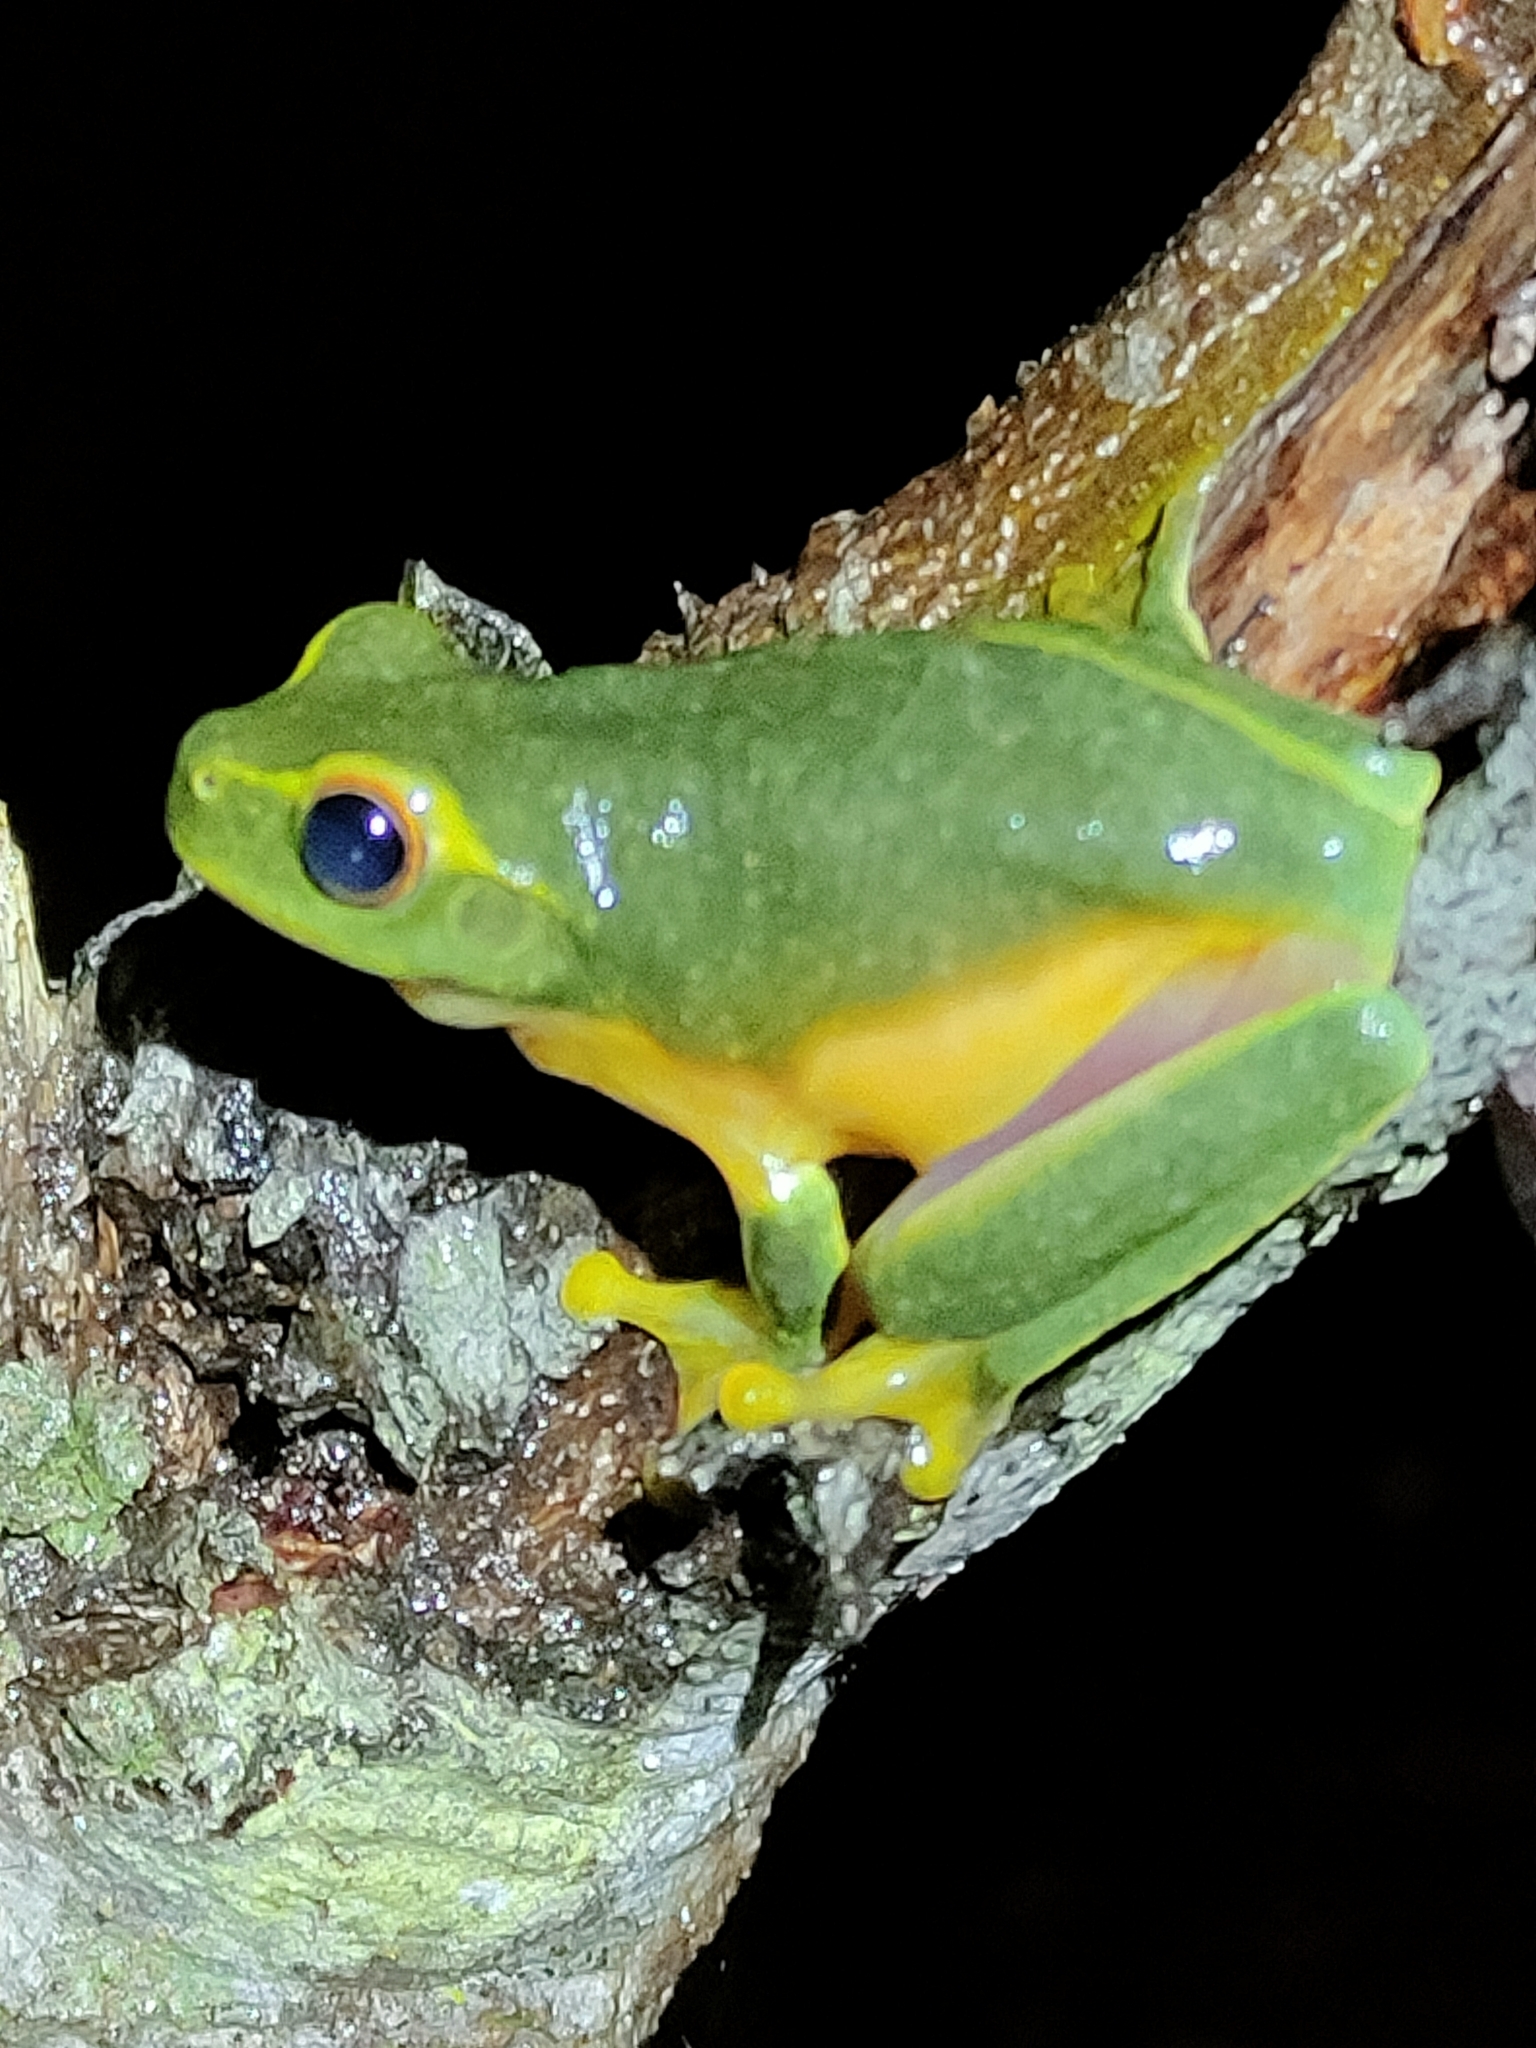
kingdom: Animalia
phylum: Chordata
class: Amphibia
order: Anura
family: Pelodryadidae
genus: Ranoidea
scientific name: Ranoidea gracilenta
